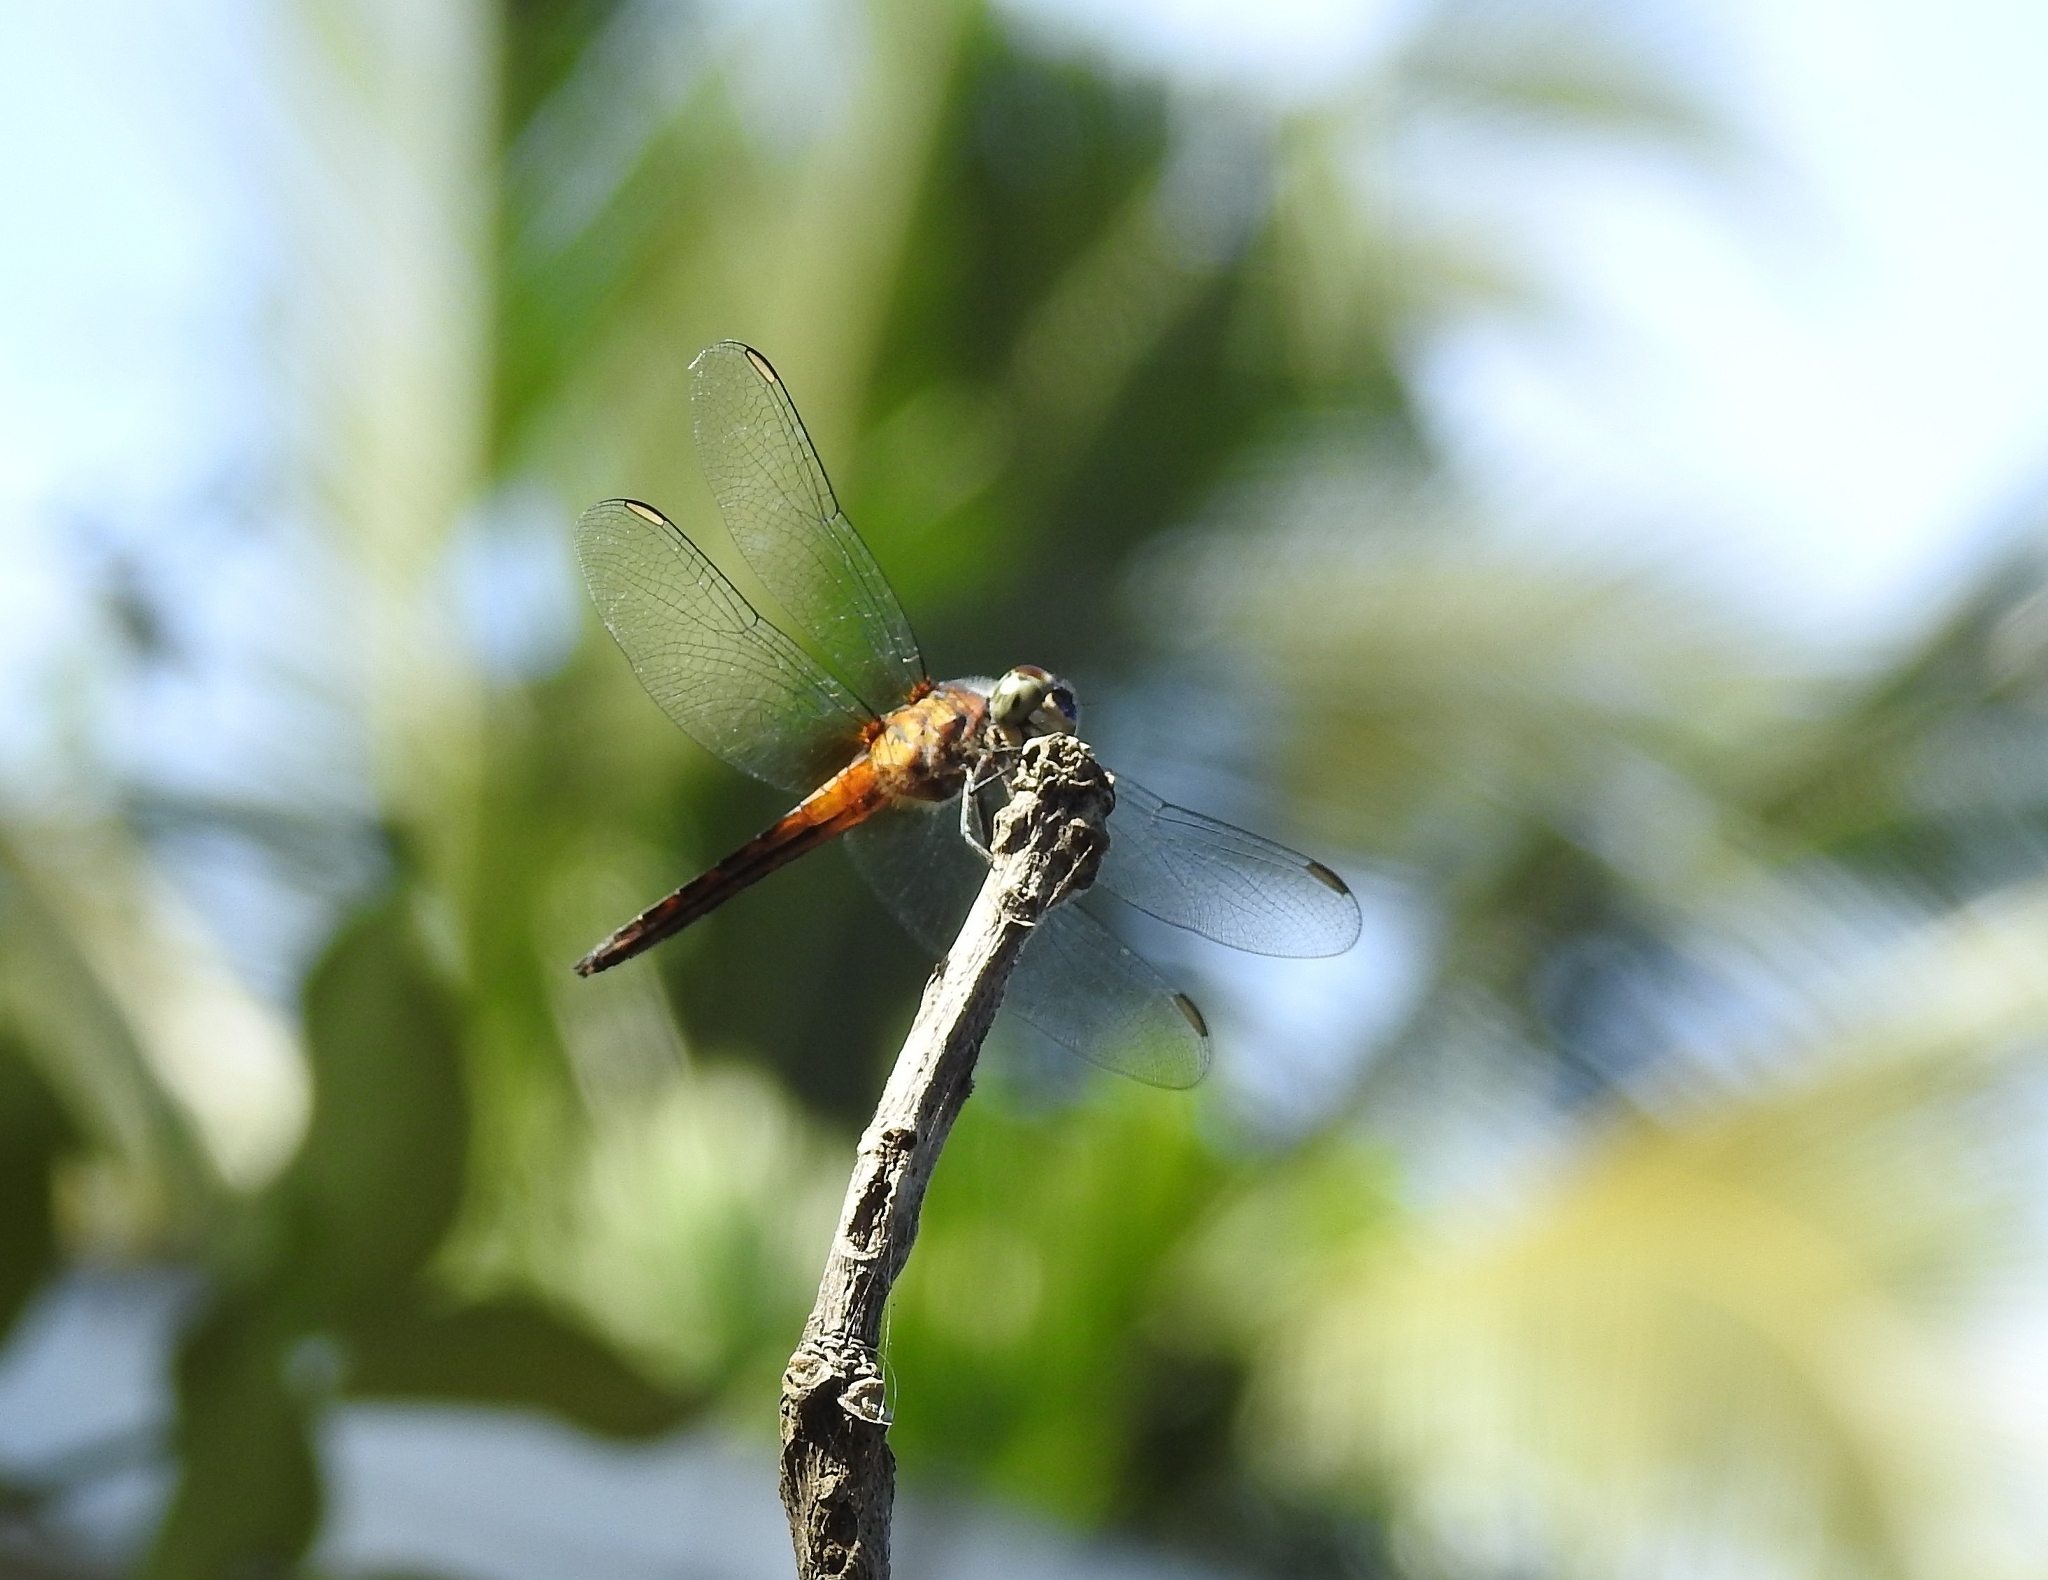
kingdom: Animalia
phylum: Arthropoda
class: Insecta
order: Odonata
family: Libellulidae
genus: Brachydiplax
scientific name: Brachydiplax chalybea
